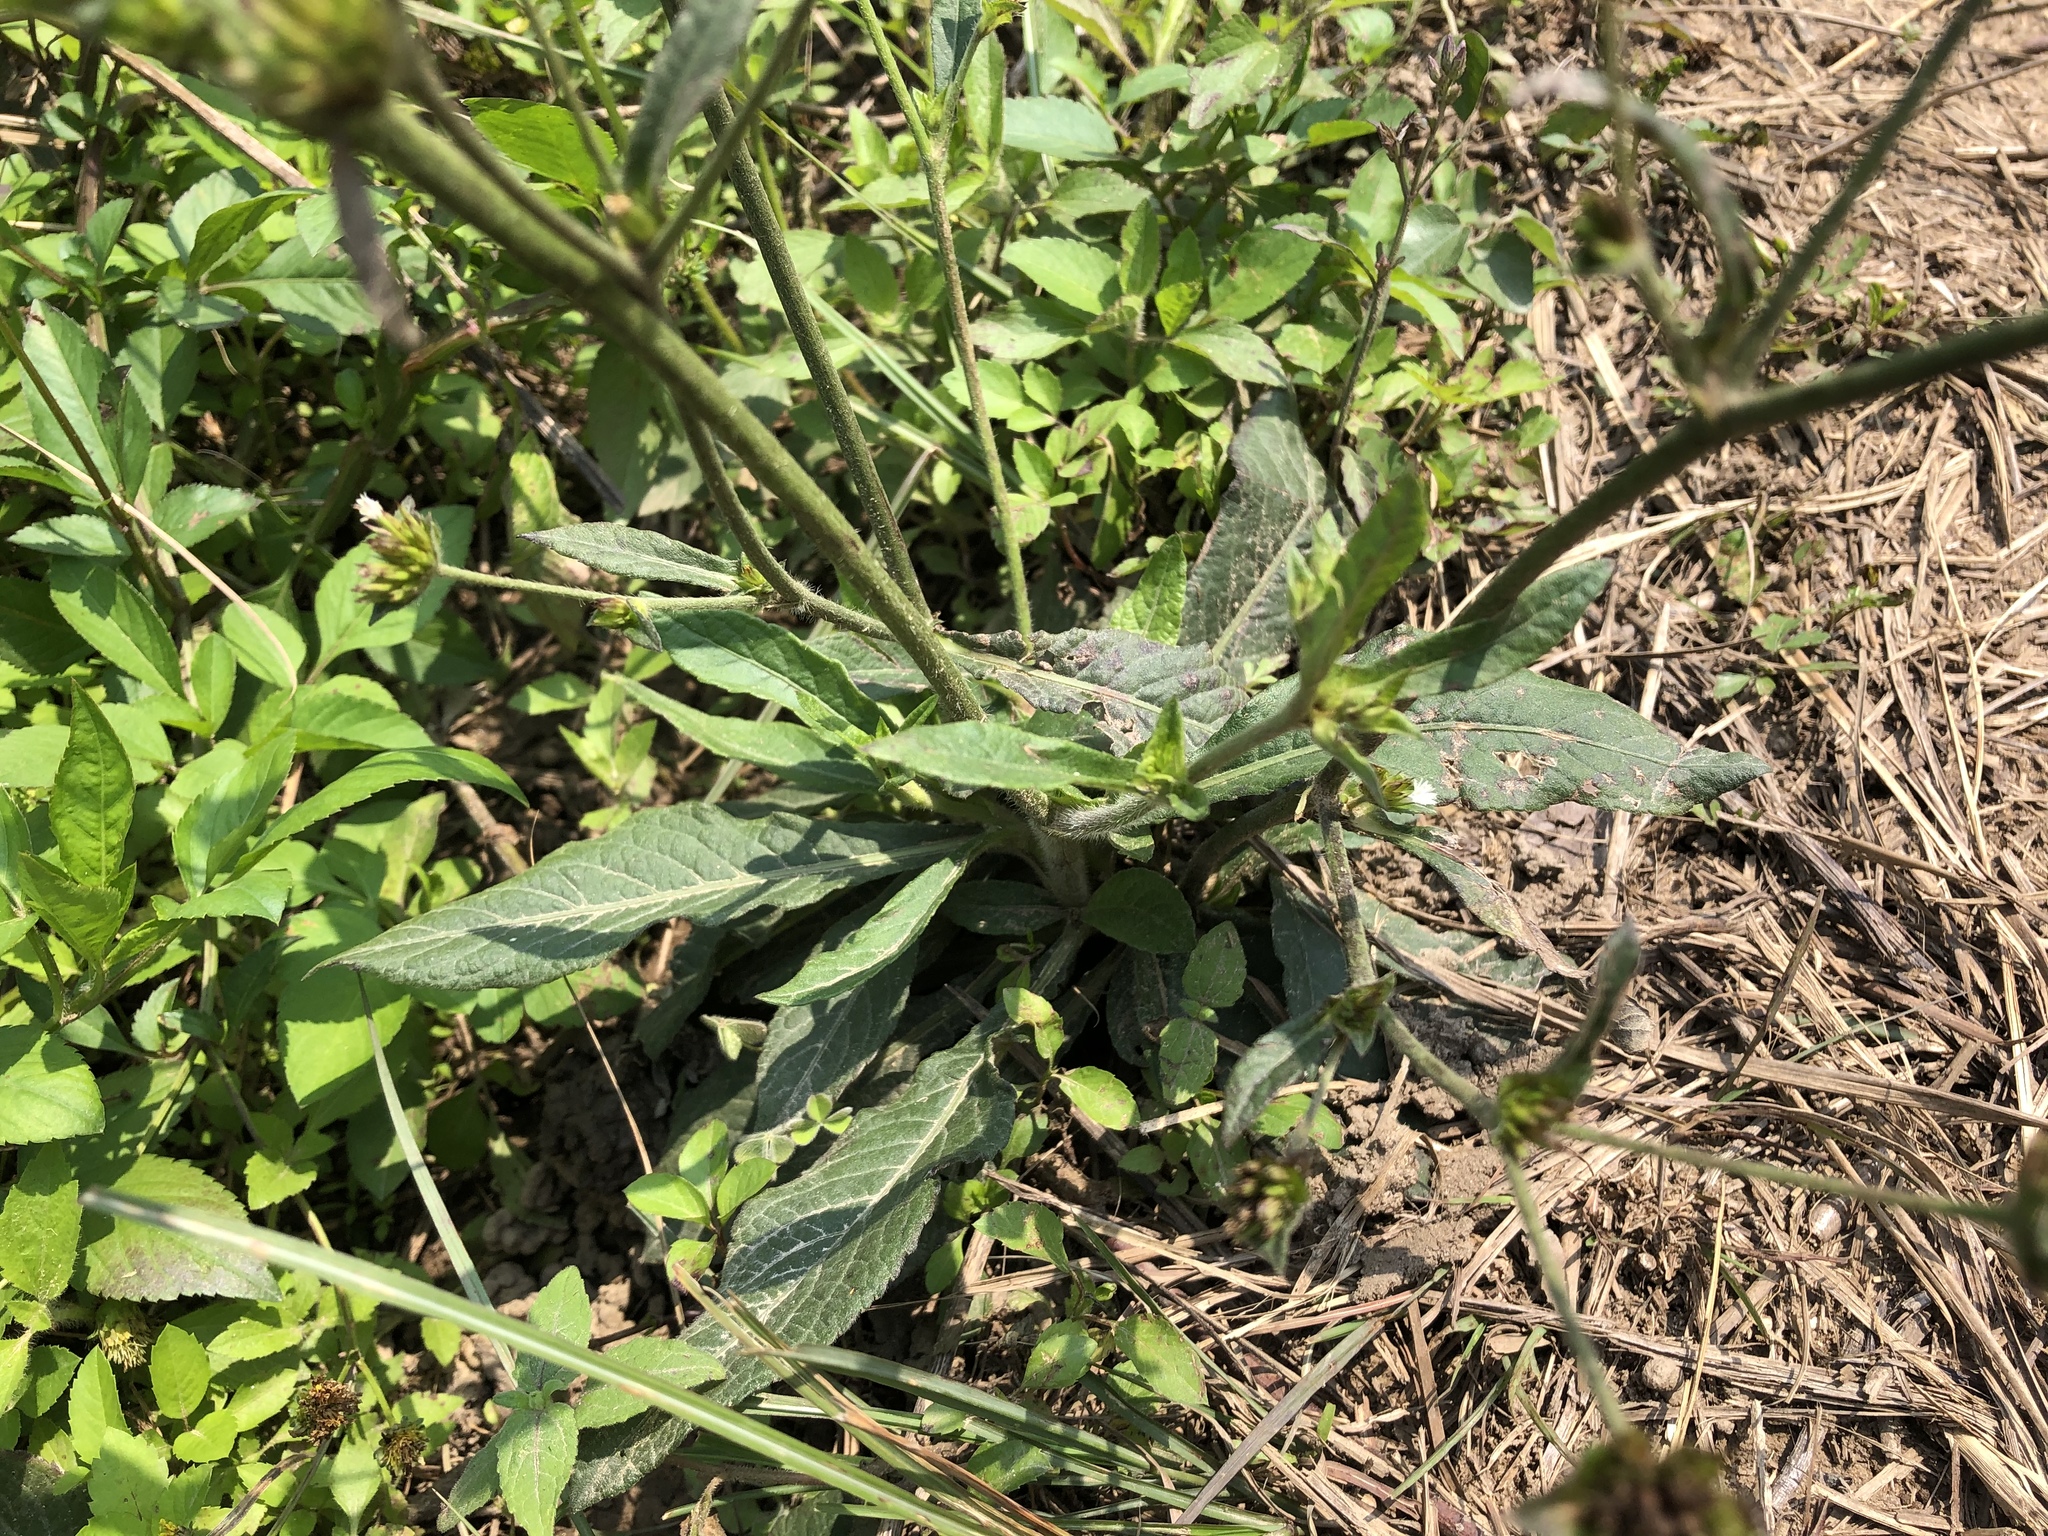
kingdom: Plantae
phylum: Tracheophyta
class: Magnoliopsida
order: Asterales
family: Asteraceae
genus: Elephantopus
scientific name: Elephantopus mollis
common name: Soft elephantsfoot
